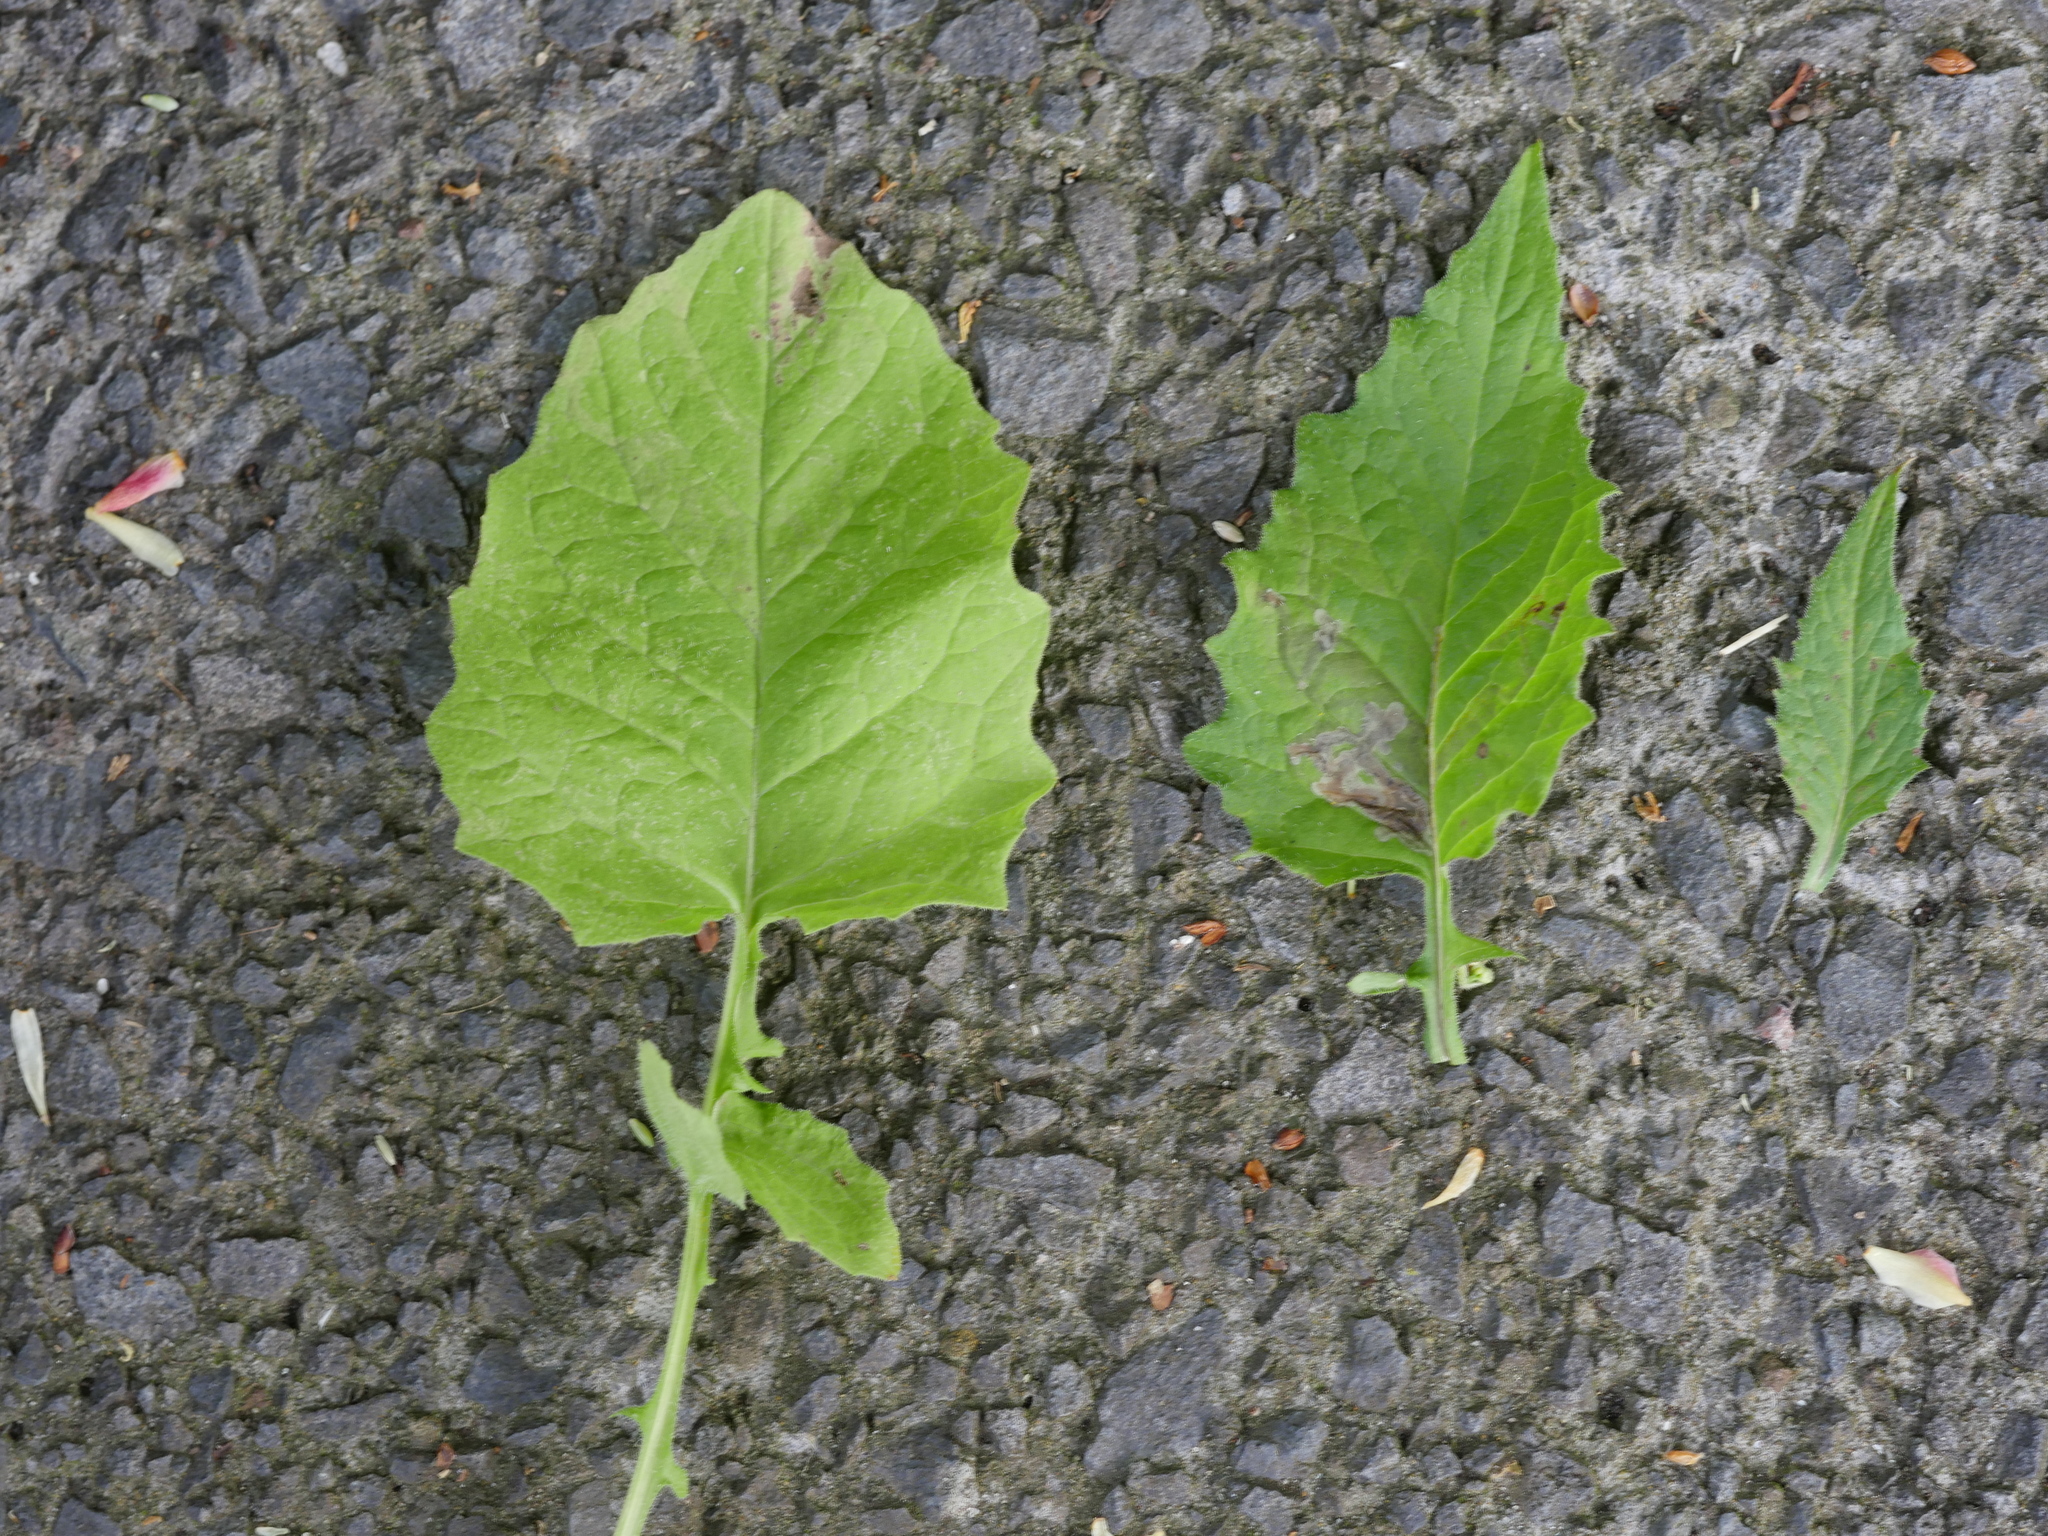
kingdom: Plantae
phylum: Tracheophyta
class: Magnoliopsida
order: Asterales
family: Asteraceae
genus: Lapsana
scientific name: Lapsana communis
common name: Nipplewort
